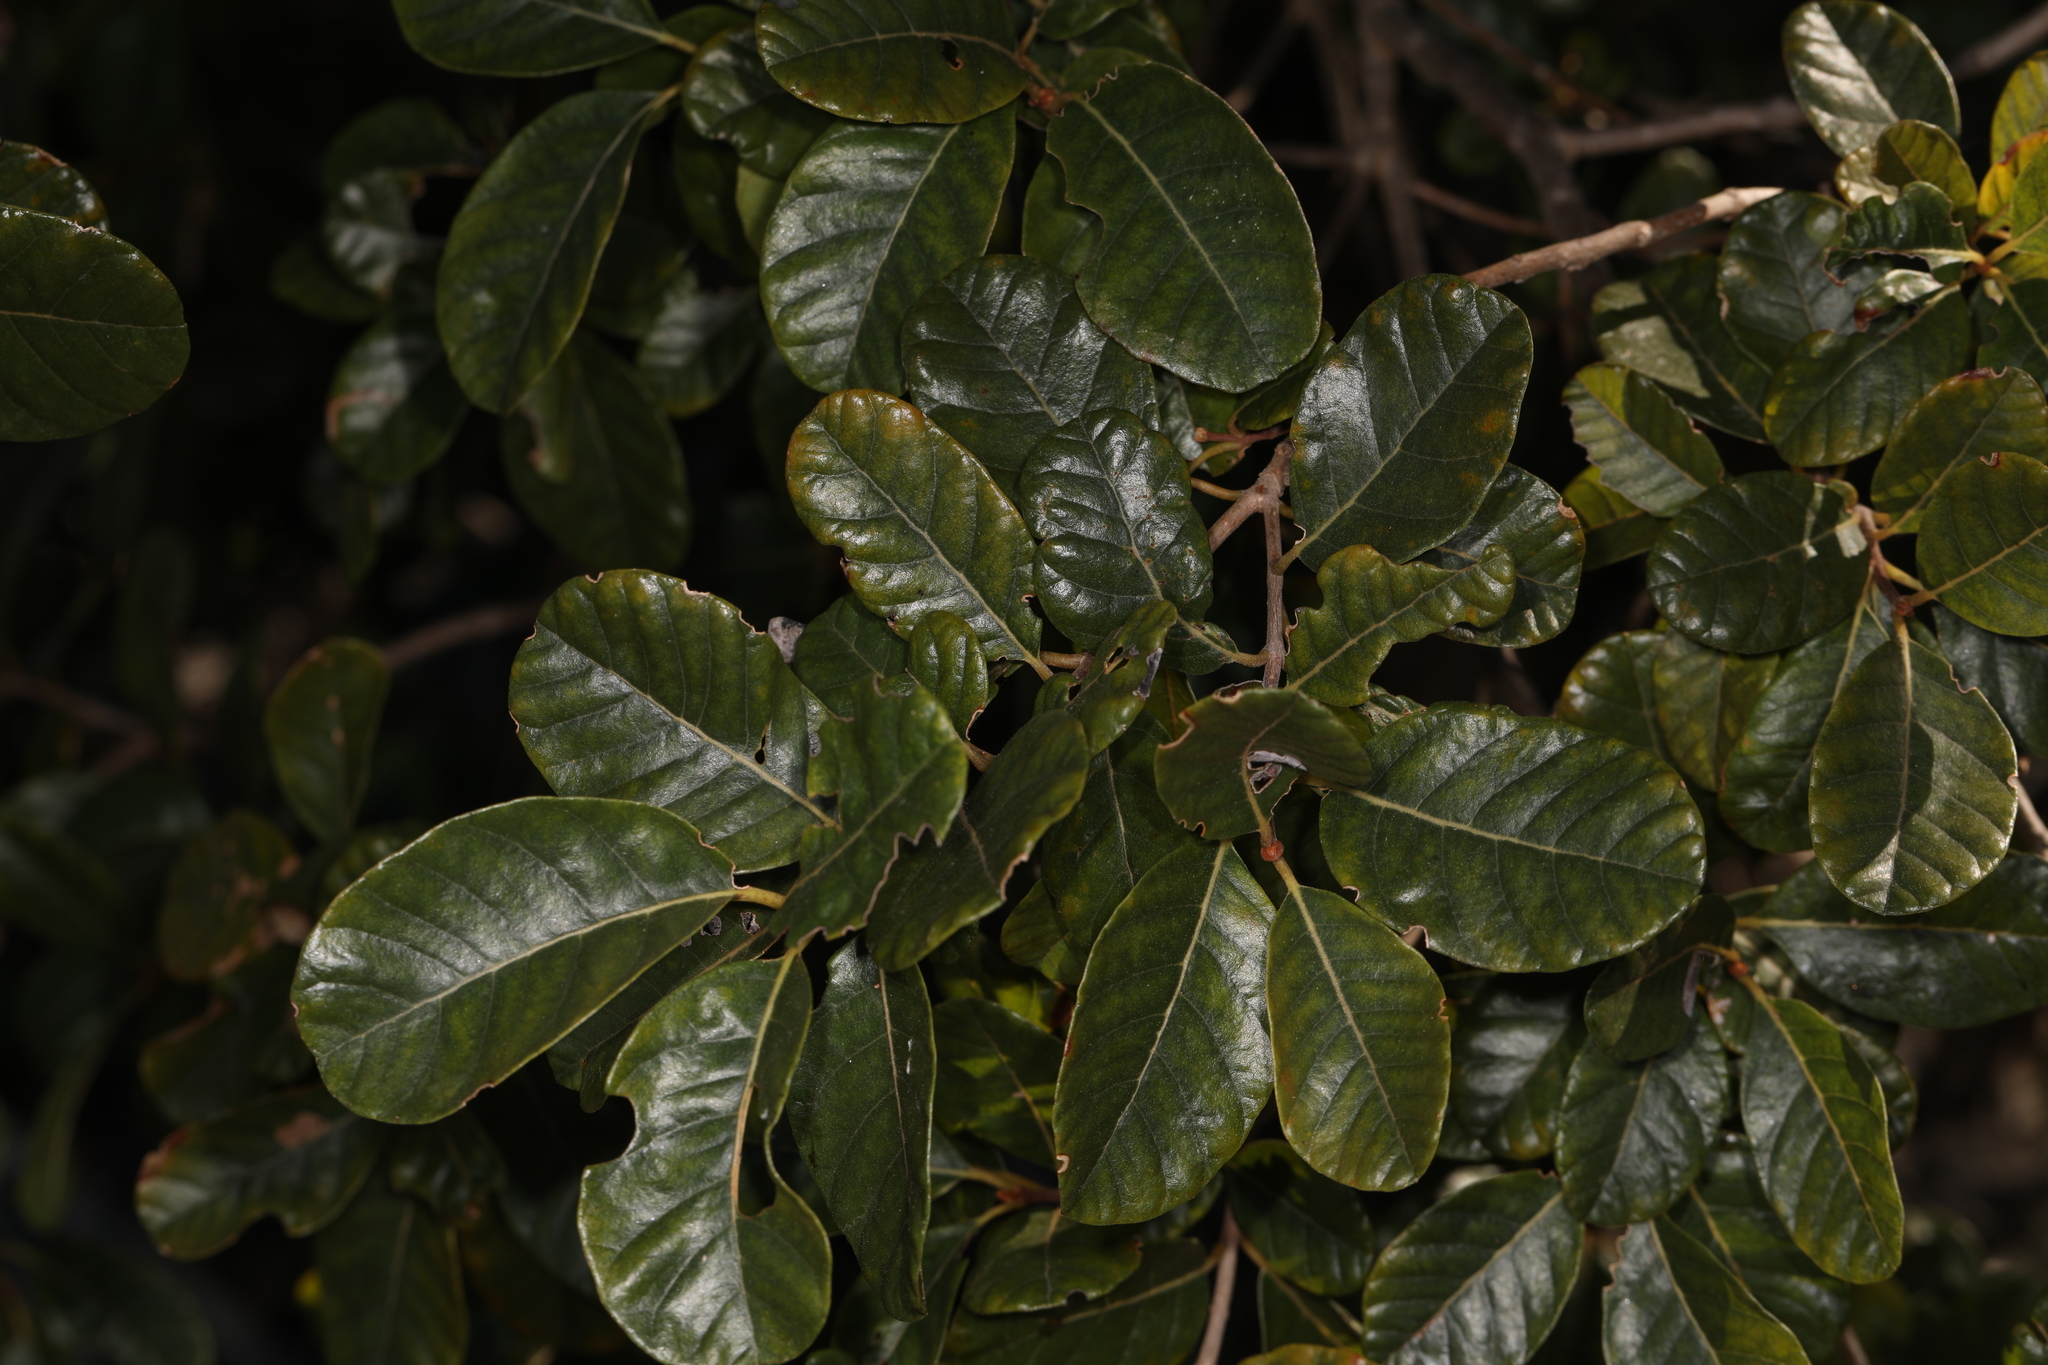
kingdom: Plantae
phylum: Tracheophyta
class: Magnoliopsida
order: Caryophyllales
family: Polygonaceae
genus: Coccoloba
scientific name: Coccoloba diversifolia
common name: Pigeon-plum
